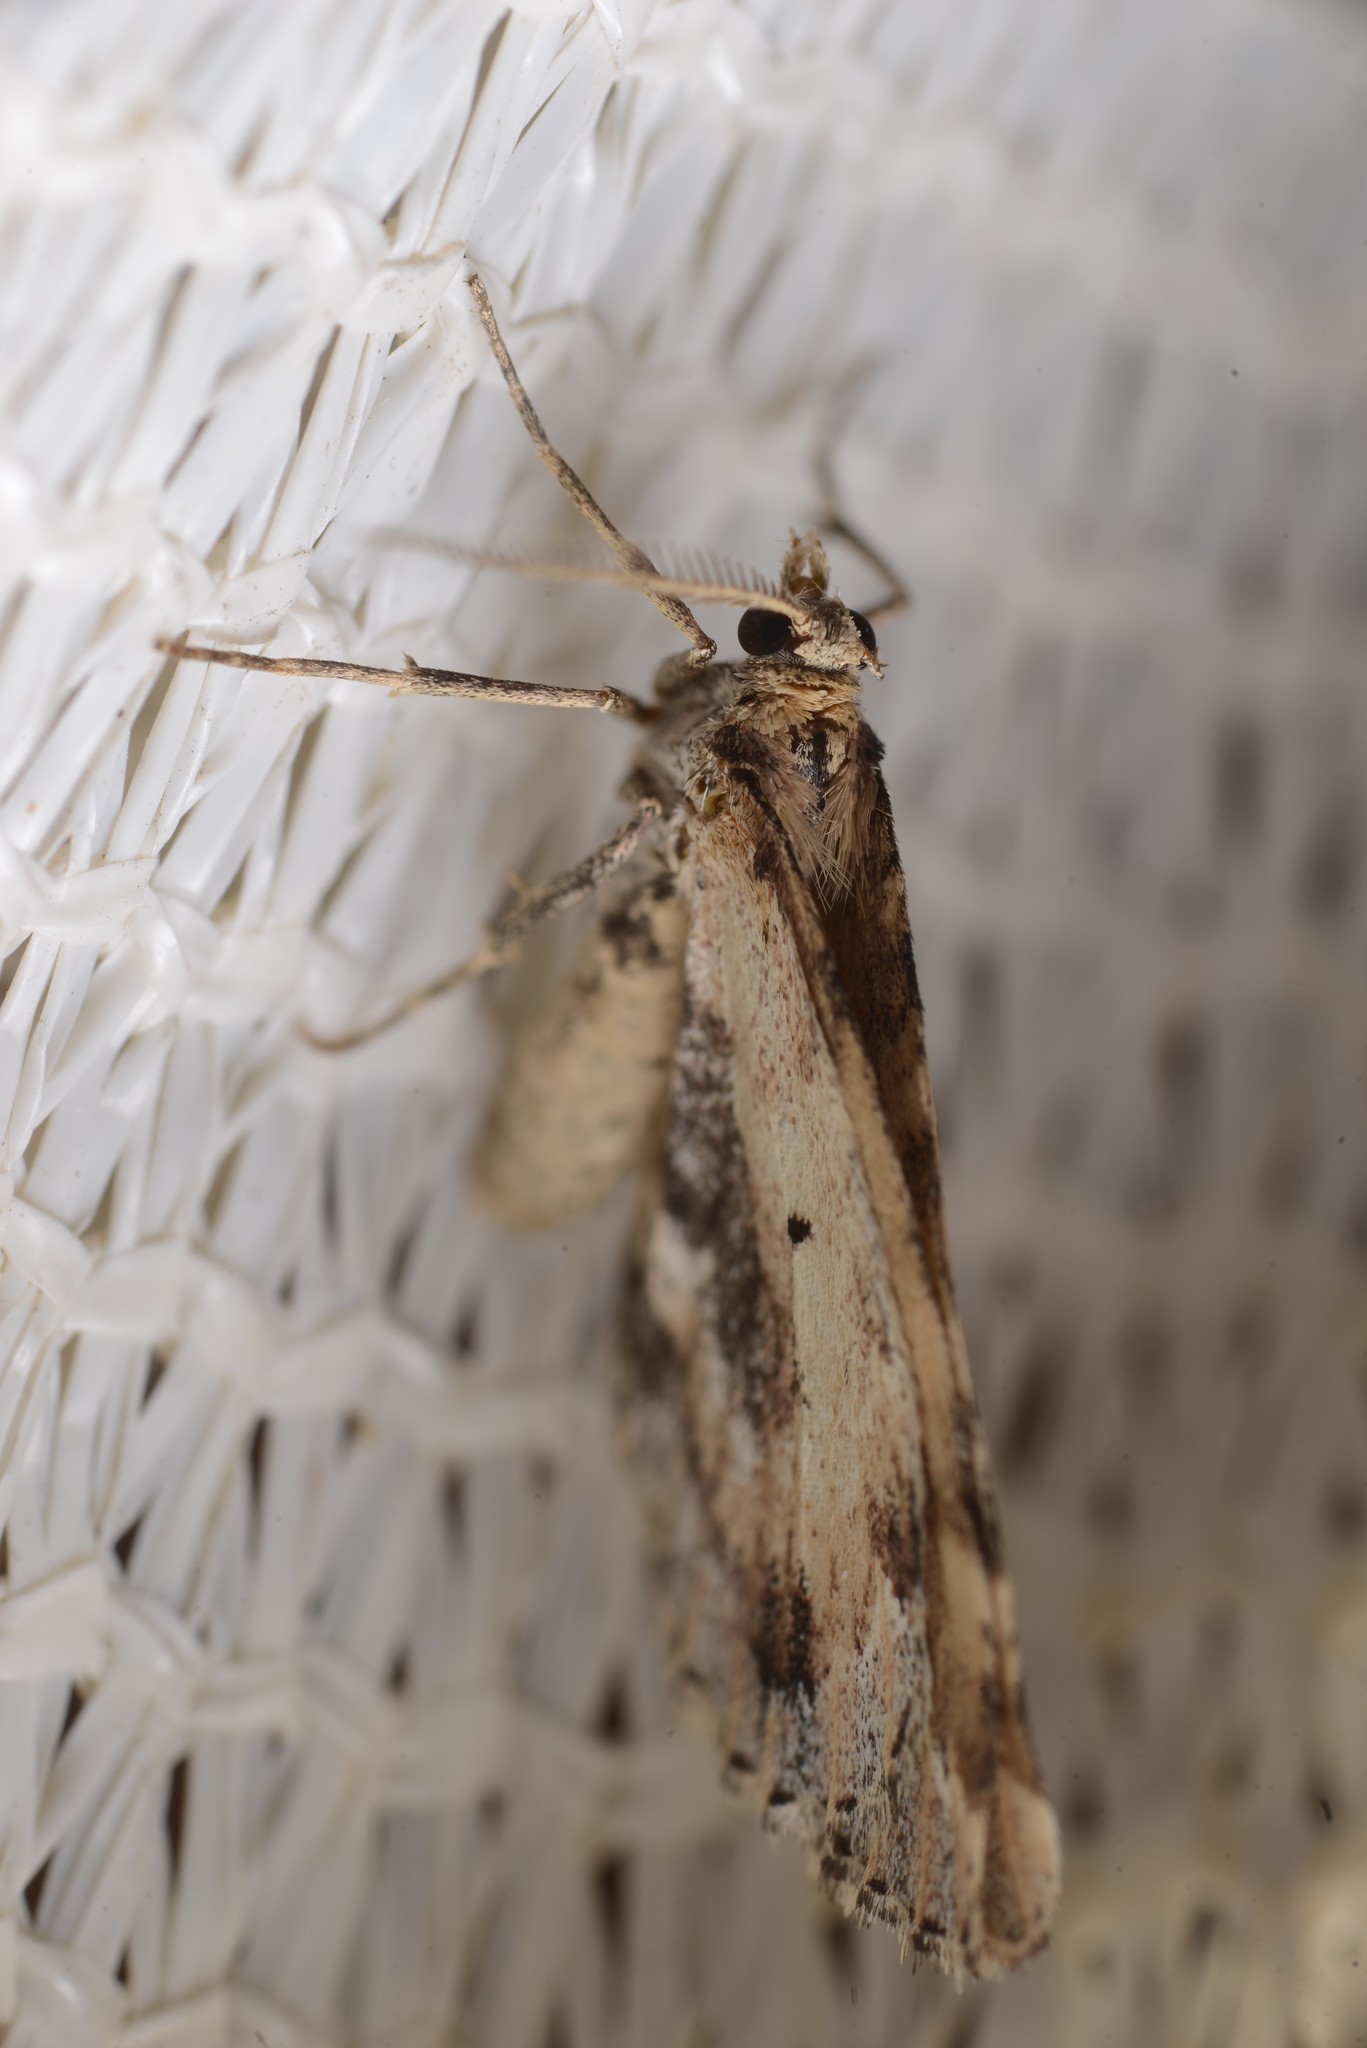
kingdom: Animalia
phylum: Arthropoda
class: Insecta
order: Lepidoptera
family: Geometridae
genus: Asaphodes
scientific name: Asaphodes aegrota
